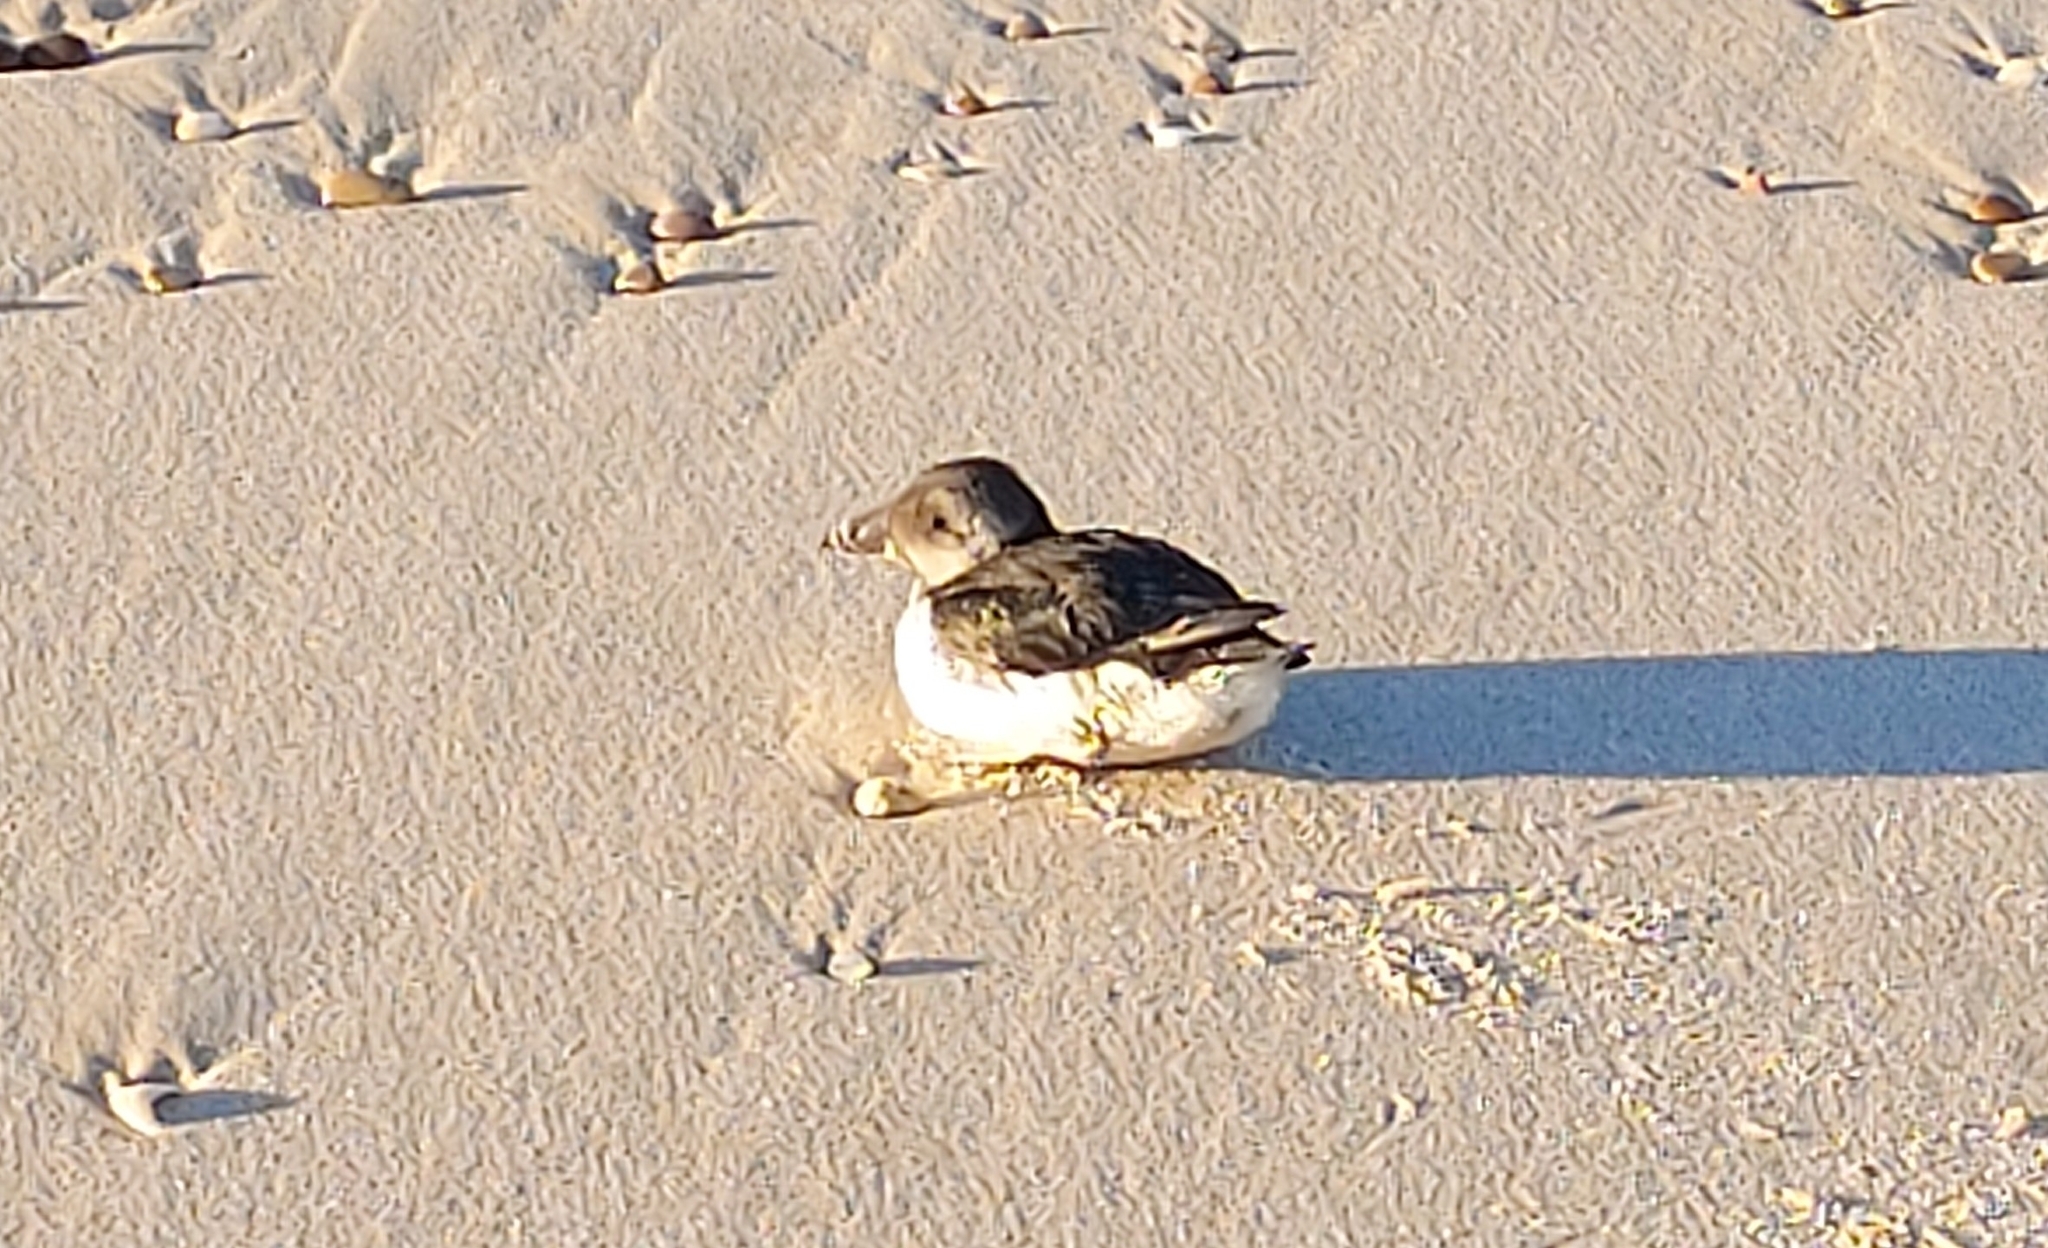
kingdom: Animalia
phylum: Chordata
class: Aves
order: Charadriiformes
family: Alcidae
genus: Fratercula
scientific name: Fratercula arctica
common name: Atlantic puffin
